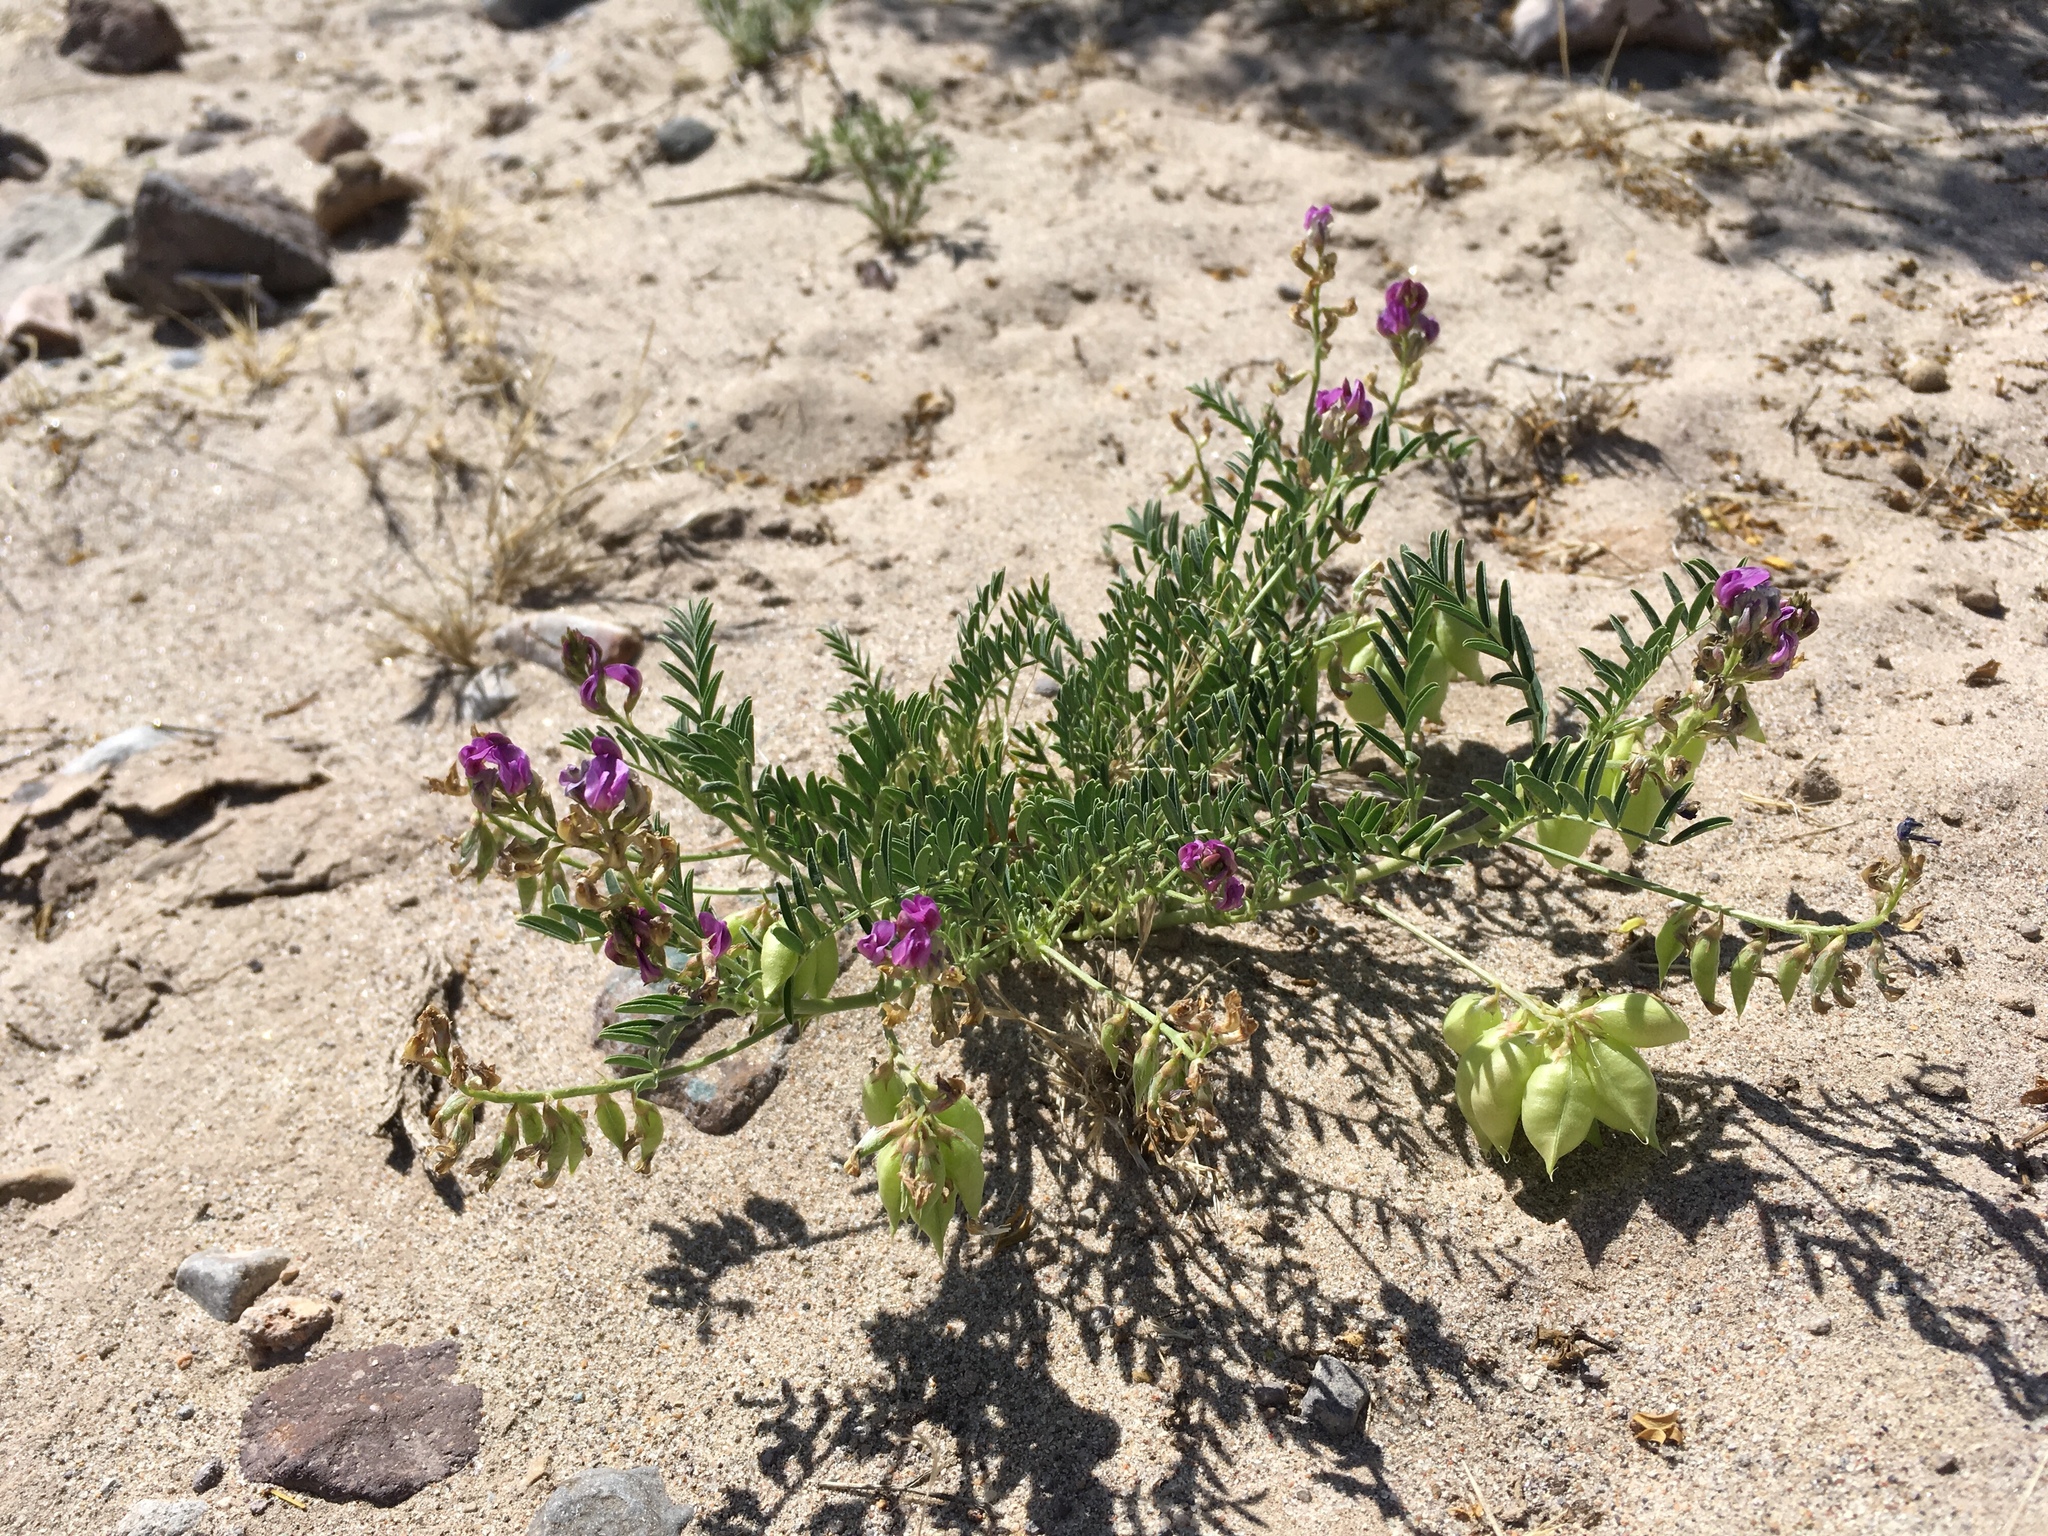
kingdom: Plantae
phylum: Tracheophyta
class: Magnoliopsida
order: Fabales
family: Fabaceae
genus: Astragalus
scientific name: Astragalus allochrous
